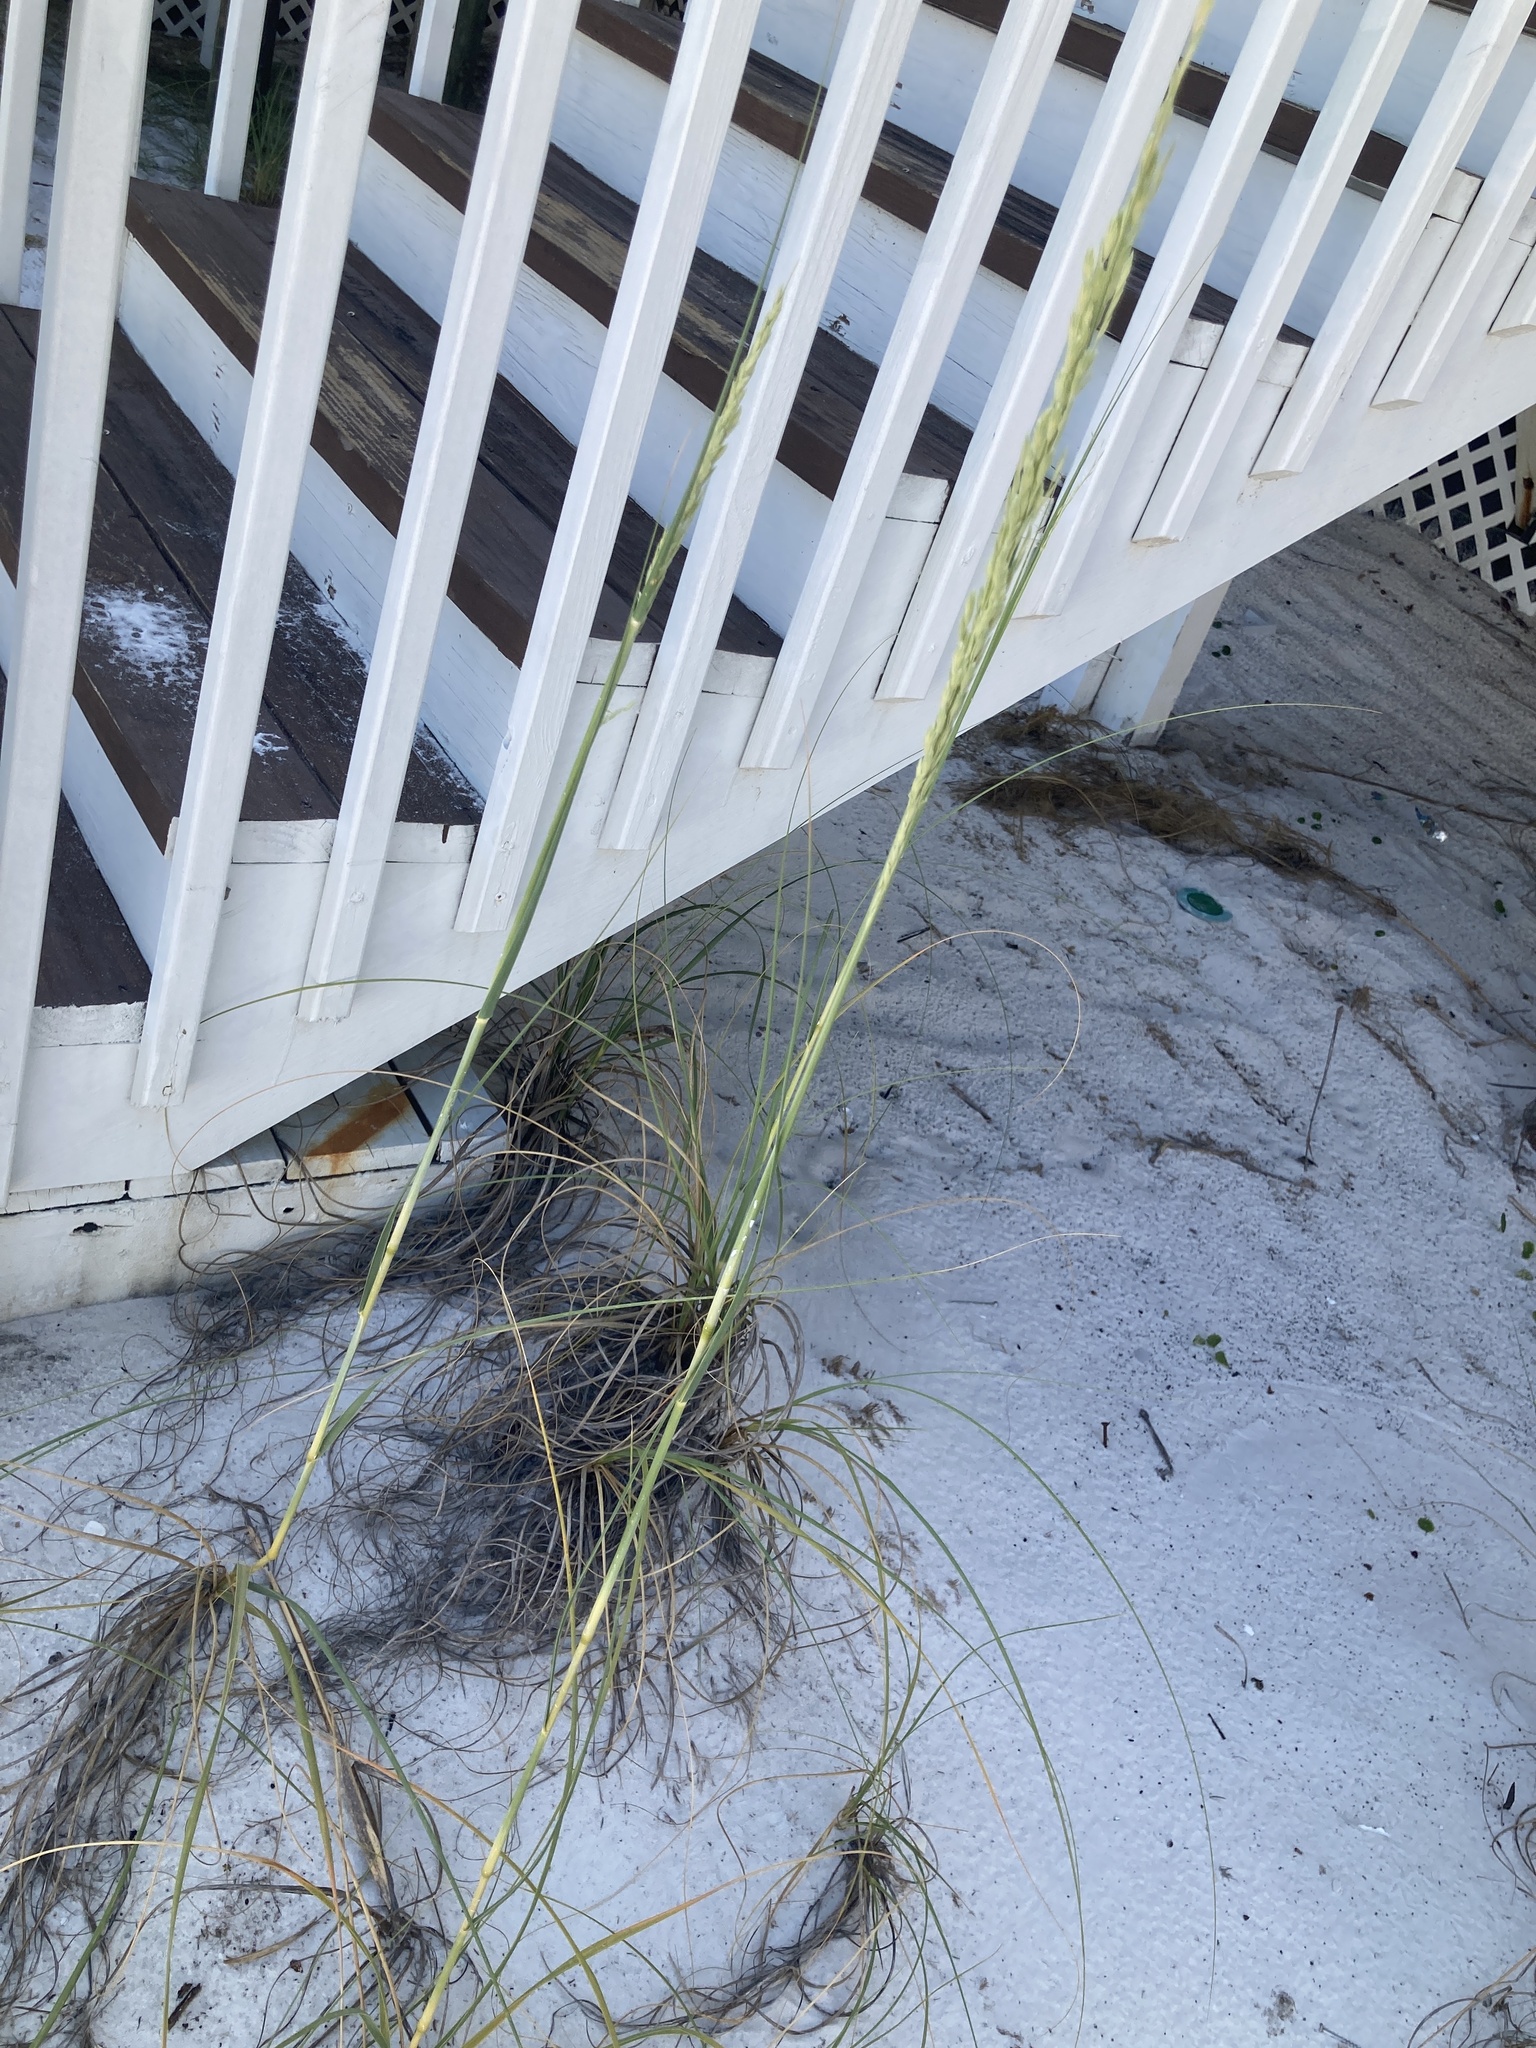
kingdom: Plantae
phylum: Tracheophyta
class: Liliopsida
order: Poales
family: Poaceae
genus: Uniola
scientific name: Uniola paniculata
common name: Seaside-oats
